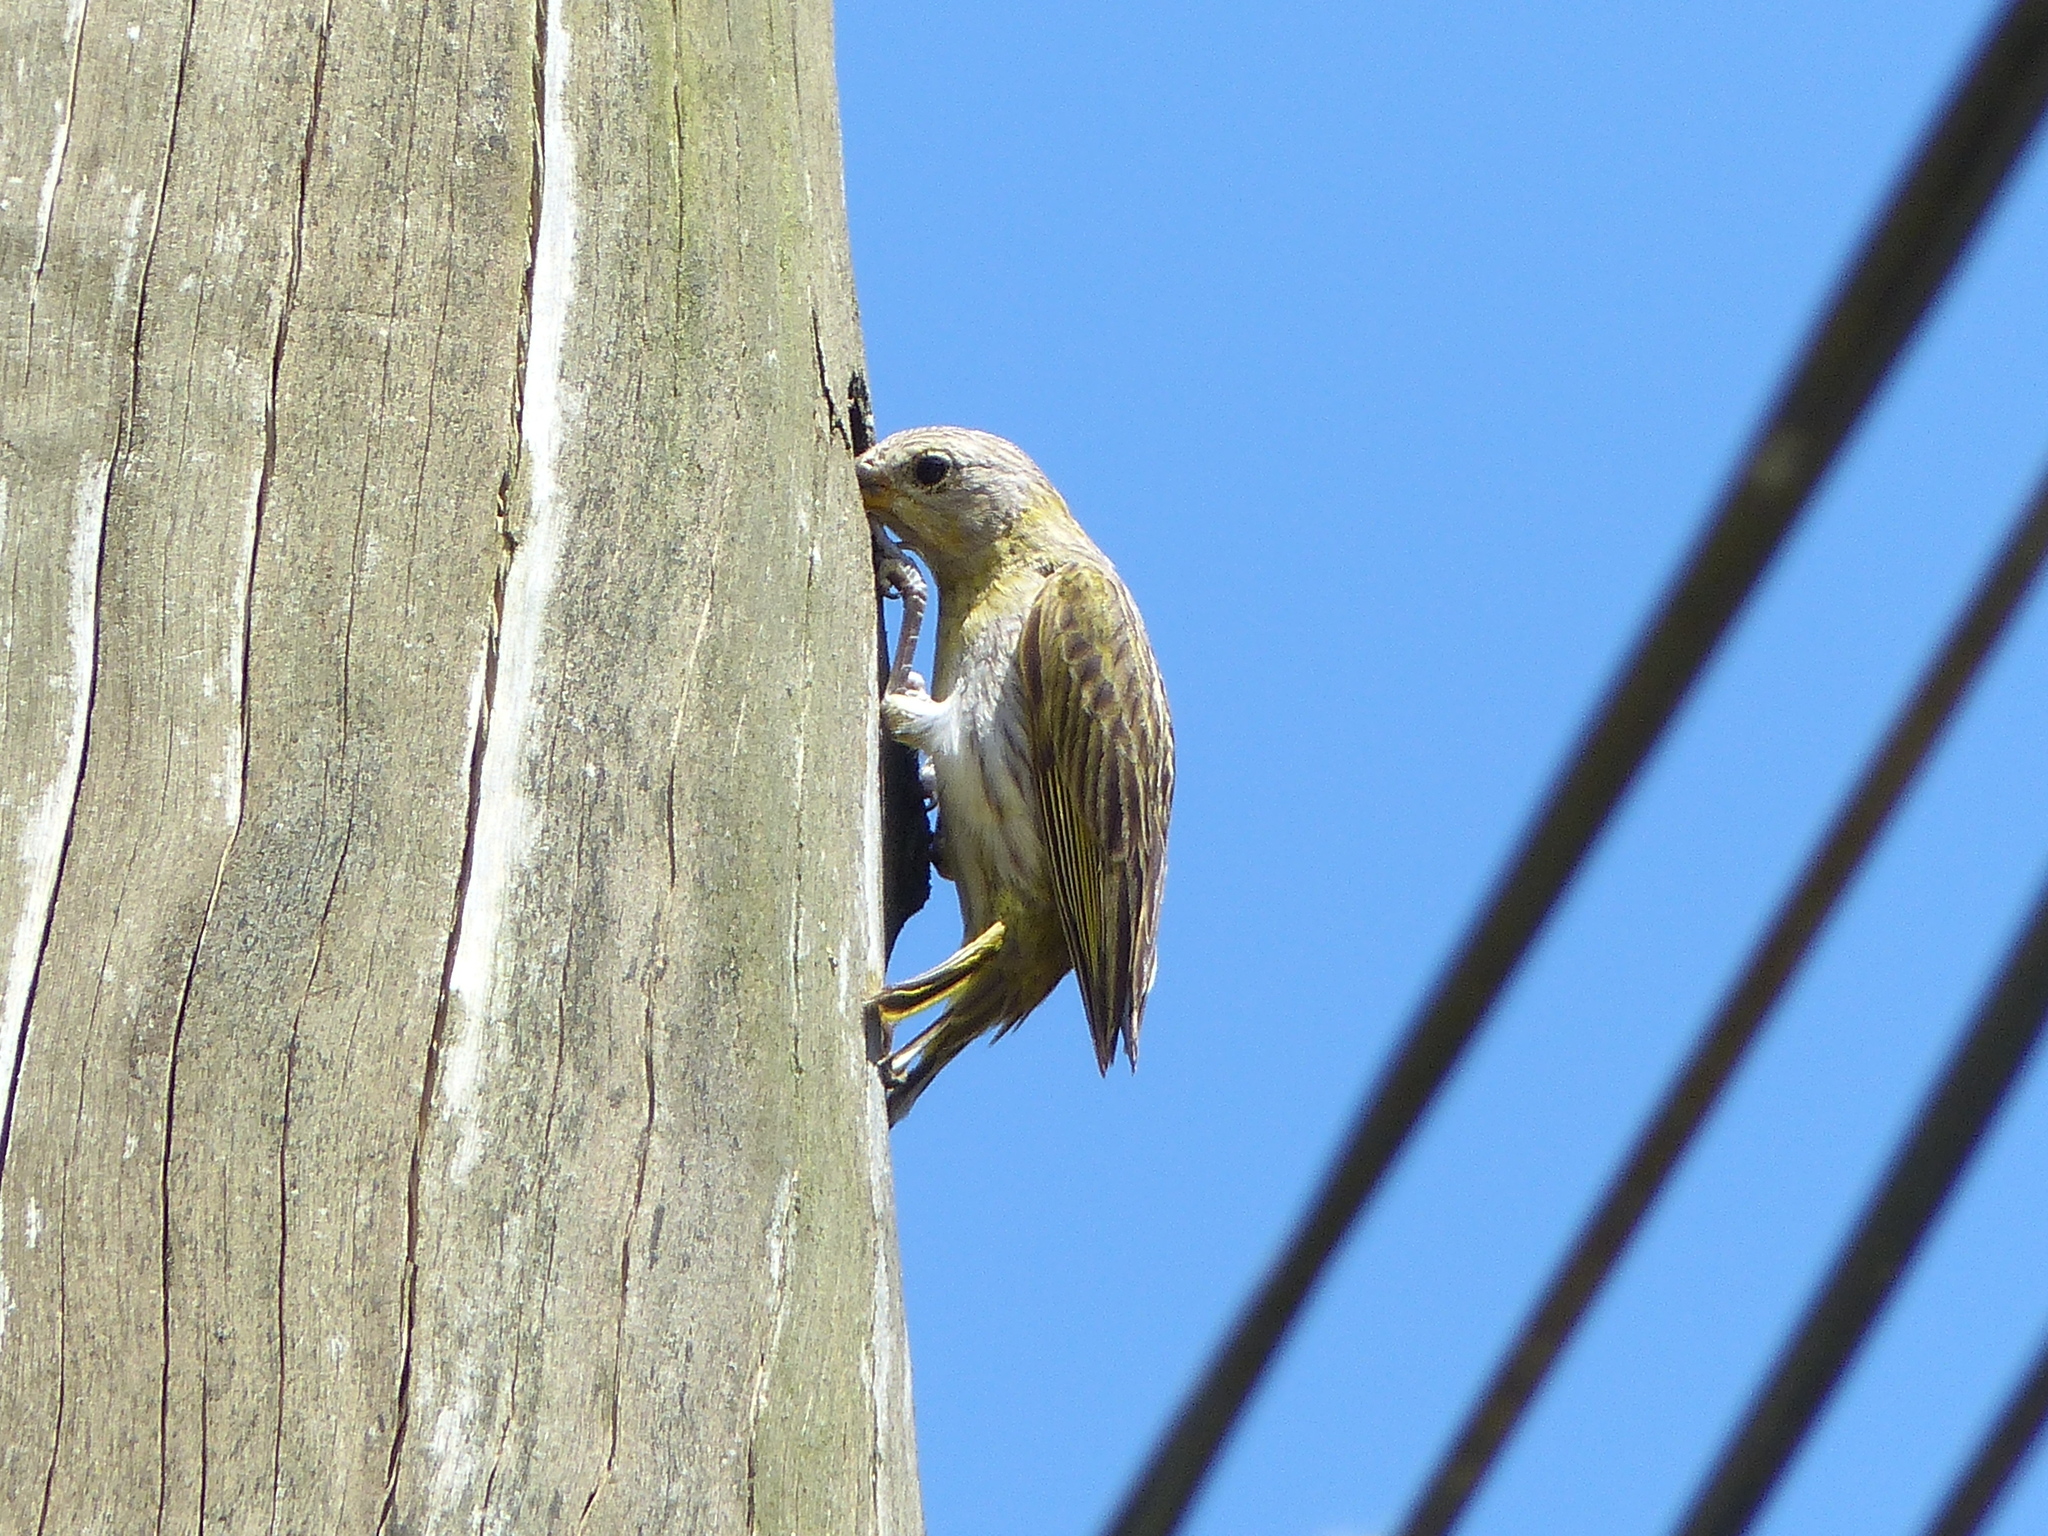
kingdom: Animalia
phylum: Chordata
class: Aves
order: Passeriformes
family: Thraupidae
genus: Sicalis
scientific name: Sicalis flaveola
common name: Saffron finch
